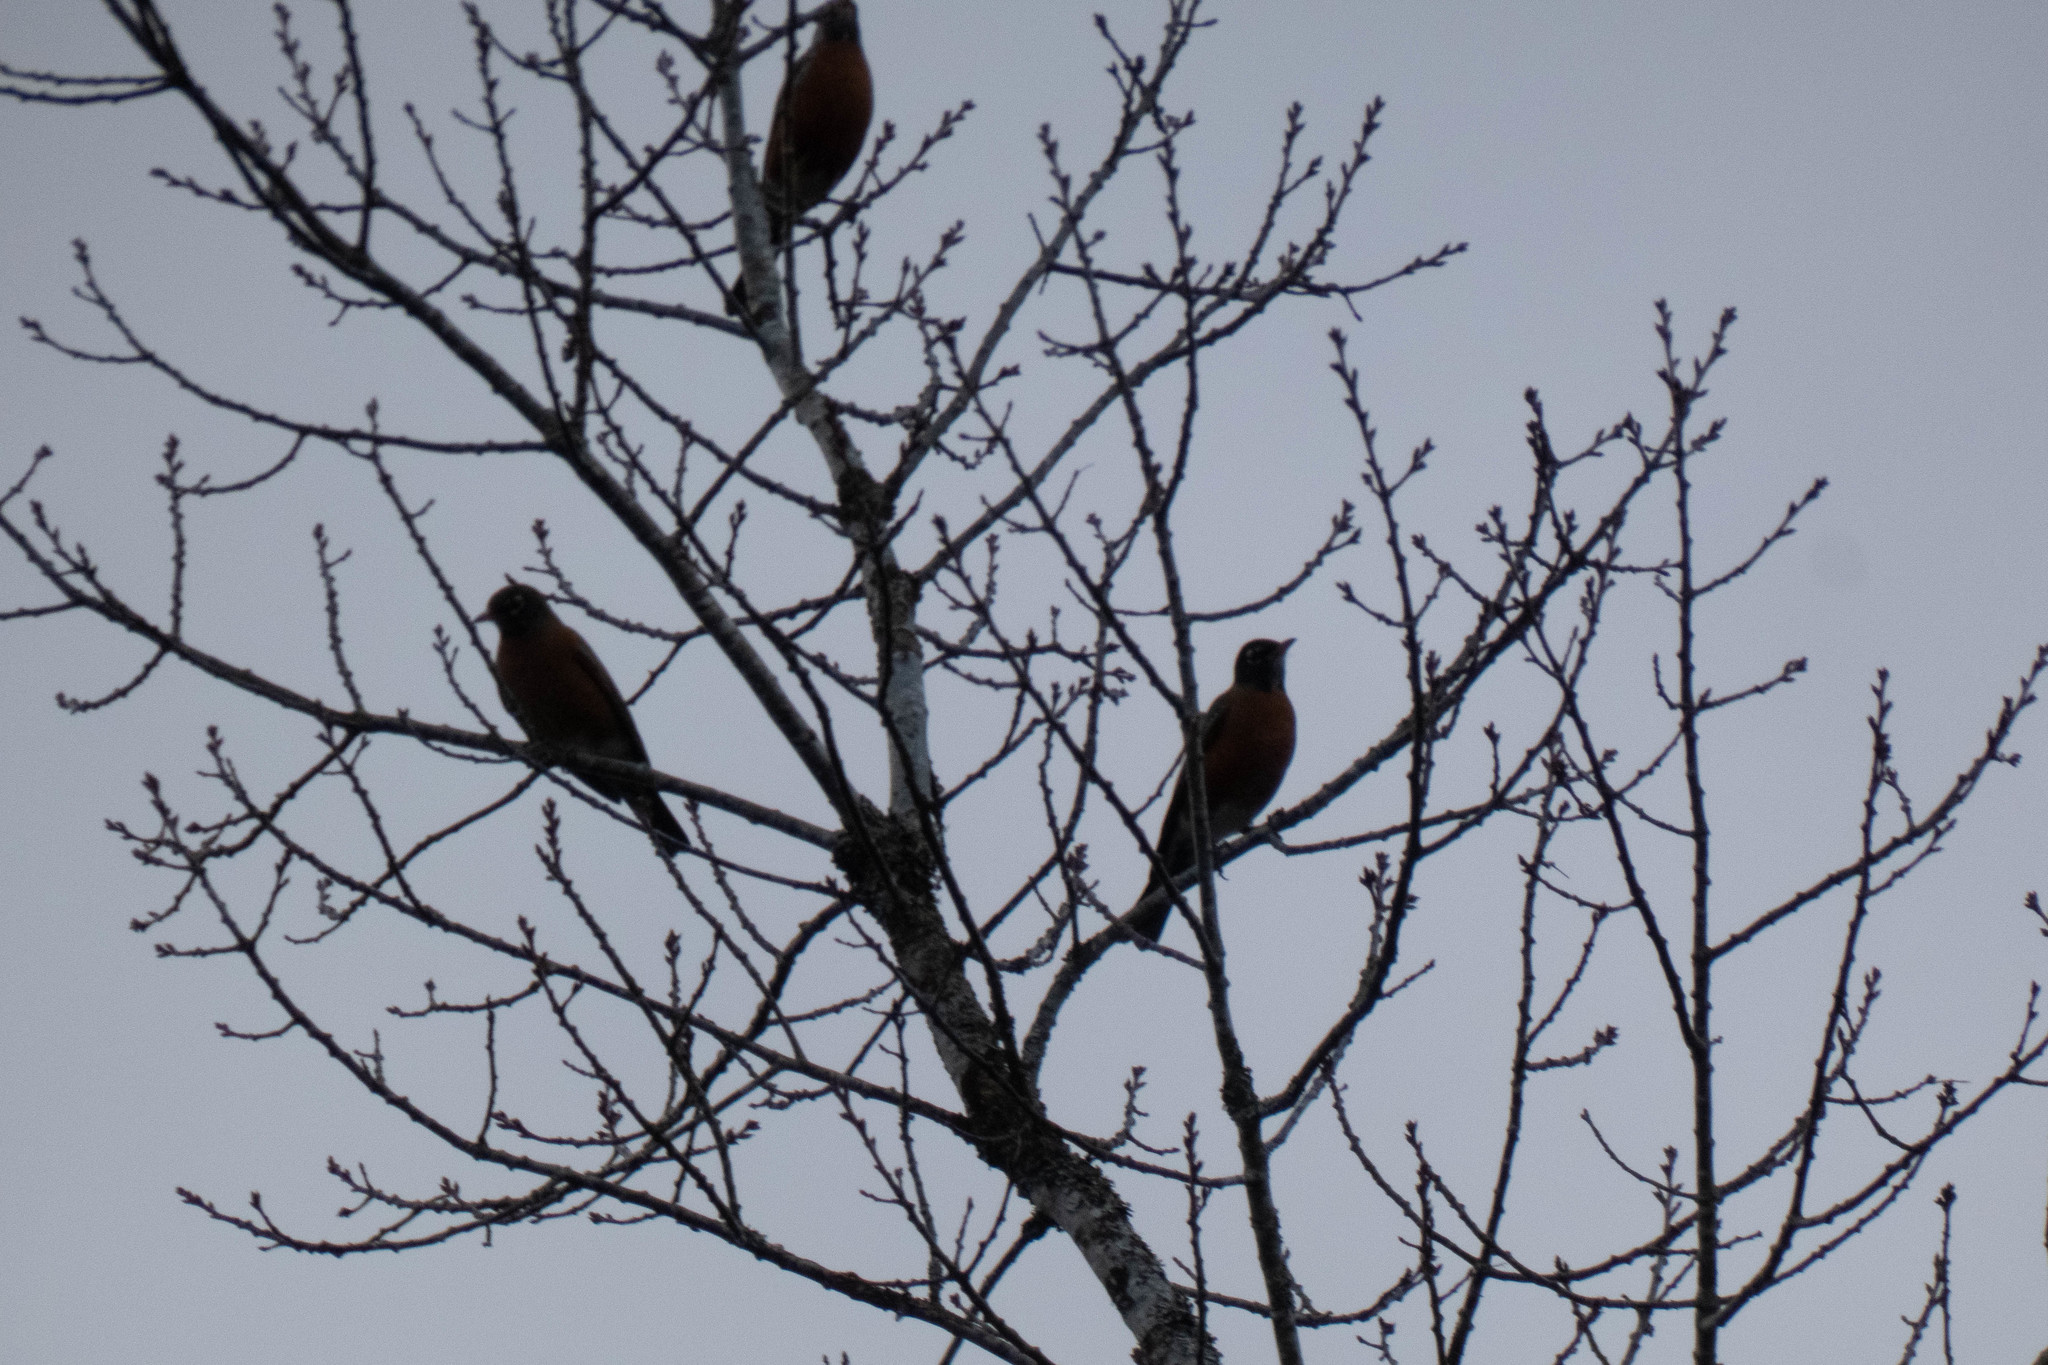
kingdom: Animalia
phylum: Chordata
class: Aves
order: Passeriformes
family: Turdidae
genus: Turdus
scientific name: Turdus migratorius
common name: American robin
